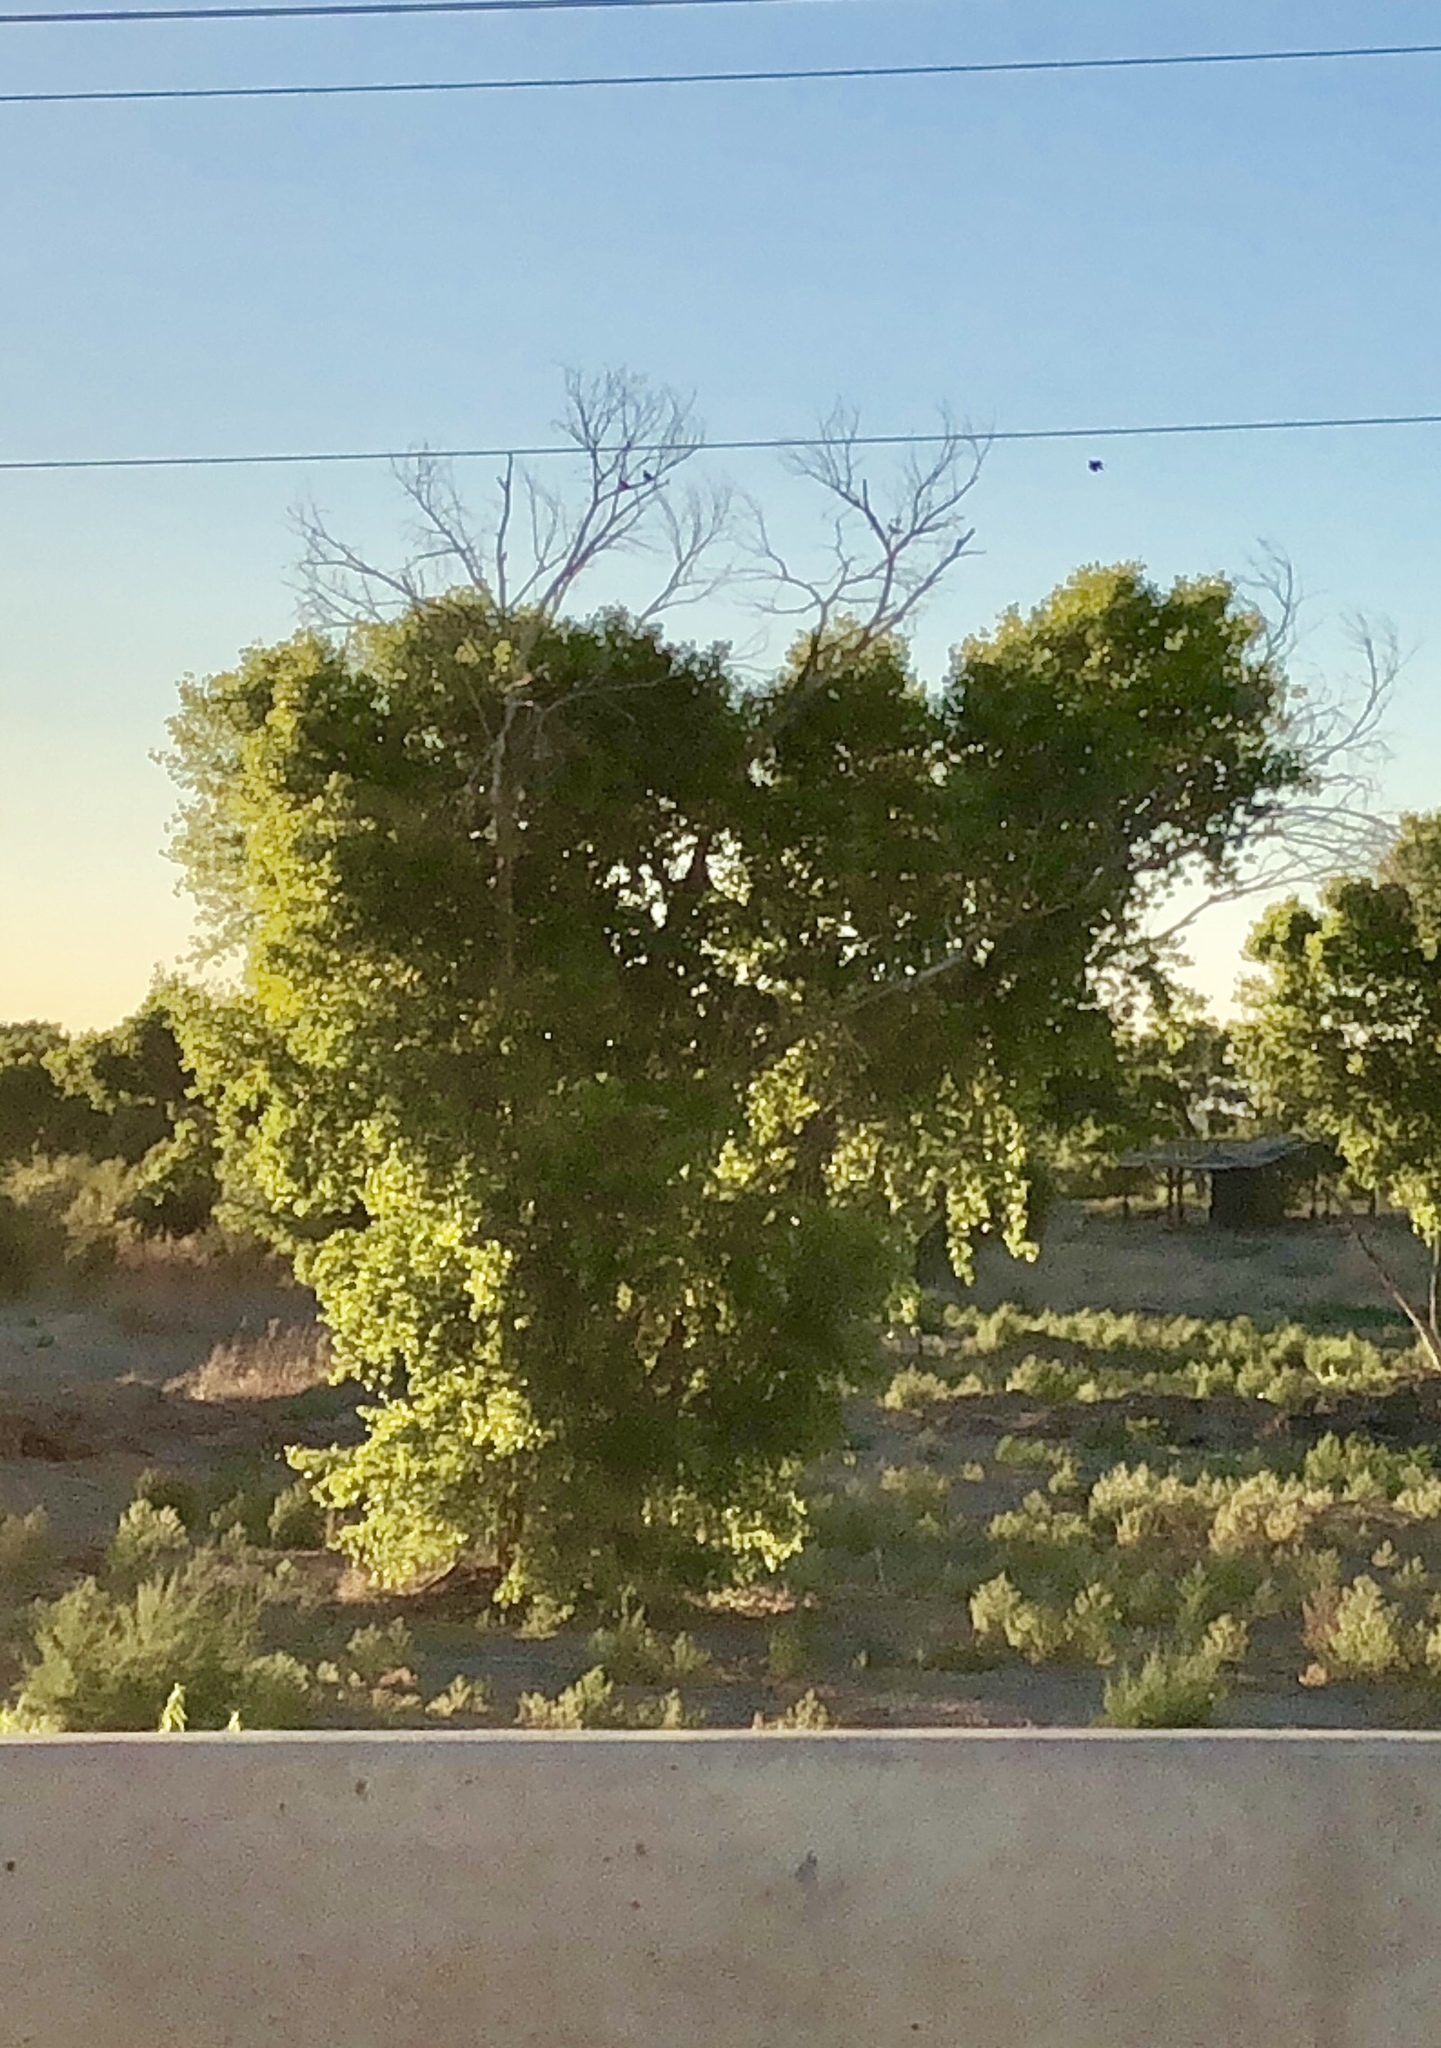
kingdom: Plantae
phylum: Tracheophyta
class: Magnoliopsida
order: Malpighiales
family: Salicaceae
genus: Populus
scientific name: Populus fremontii
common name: Fremont's cottonwood
